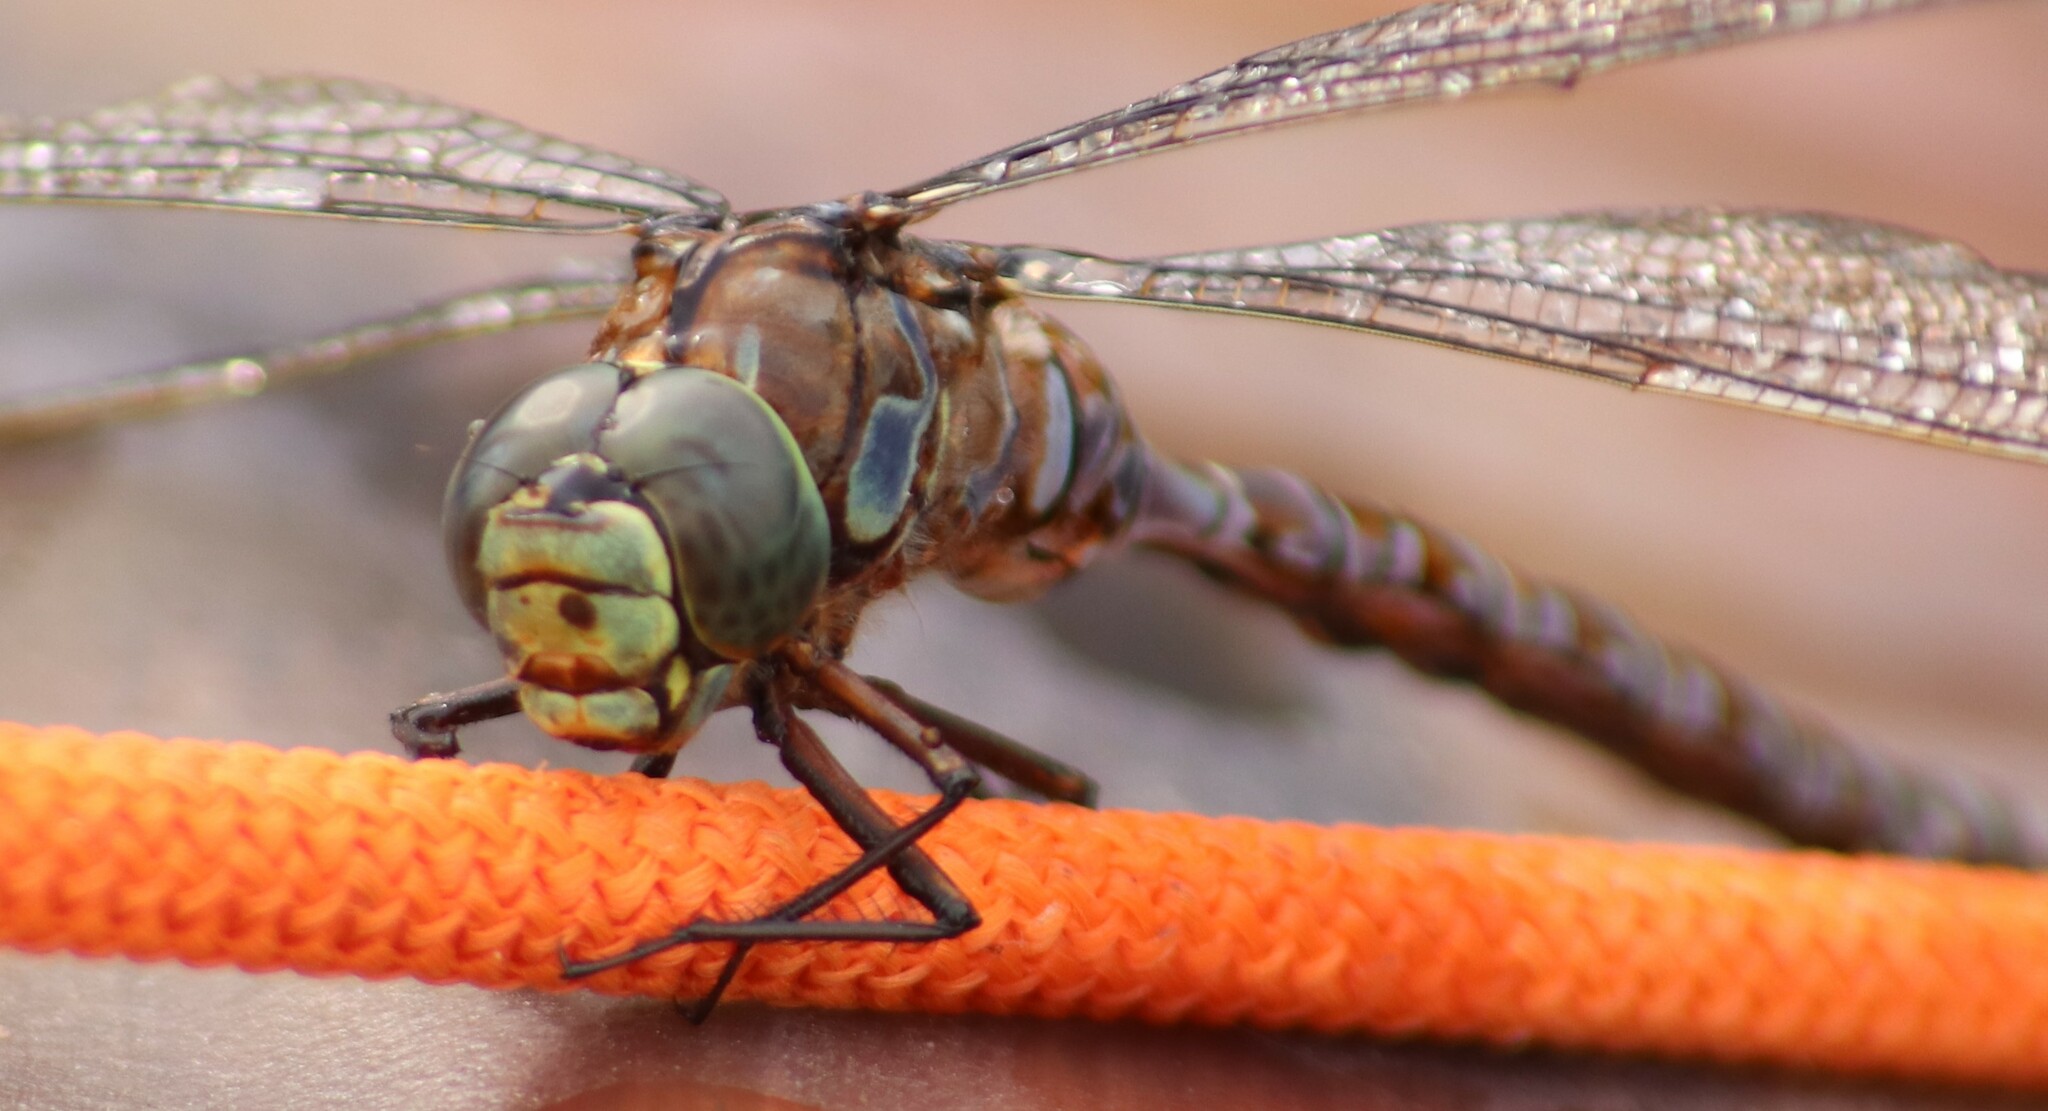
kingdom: Animalia
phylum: Arthropoda
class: Insecta
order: Odonata
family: Aeshnidae
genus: Aeshna
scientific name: Aeshna eremita
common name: Lake darner
